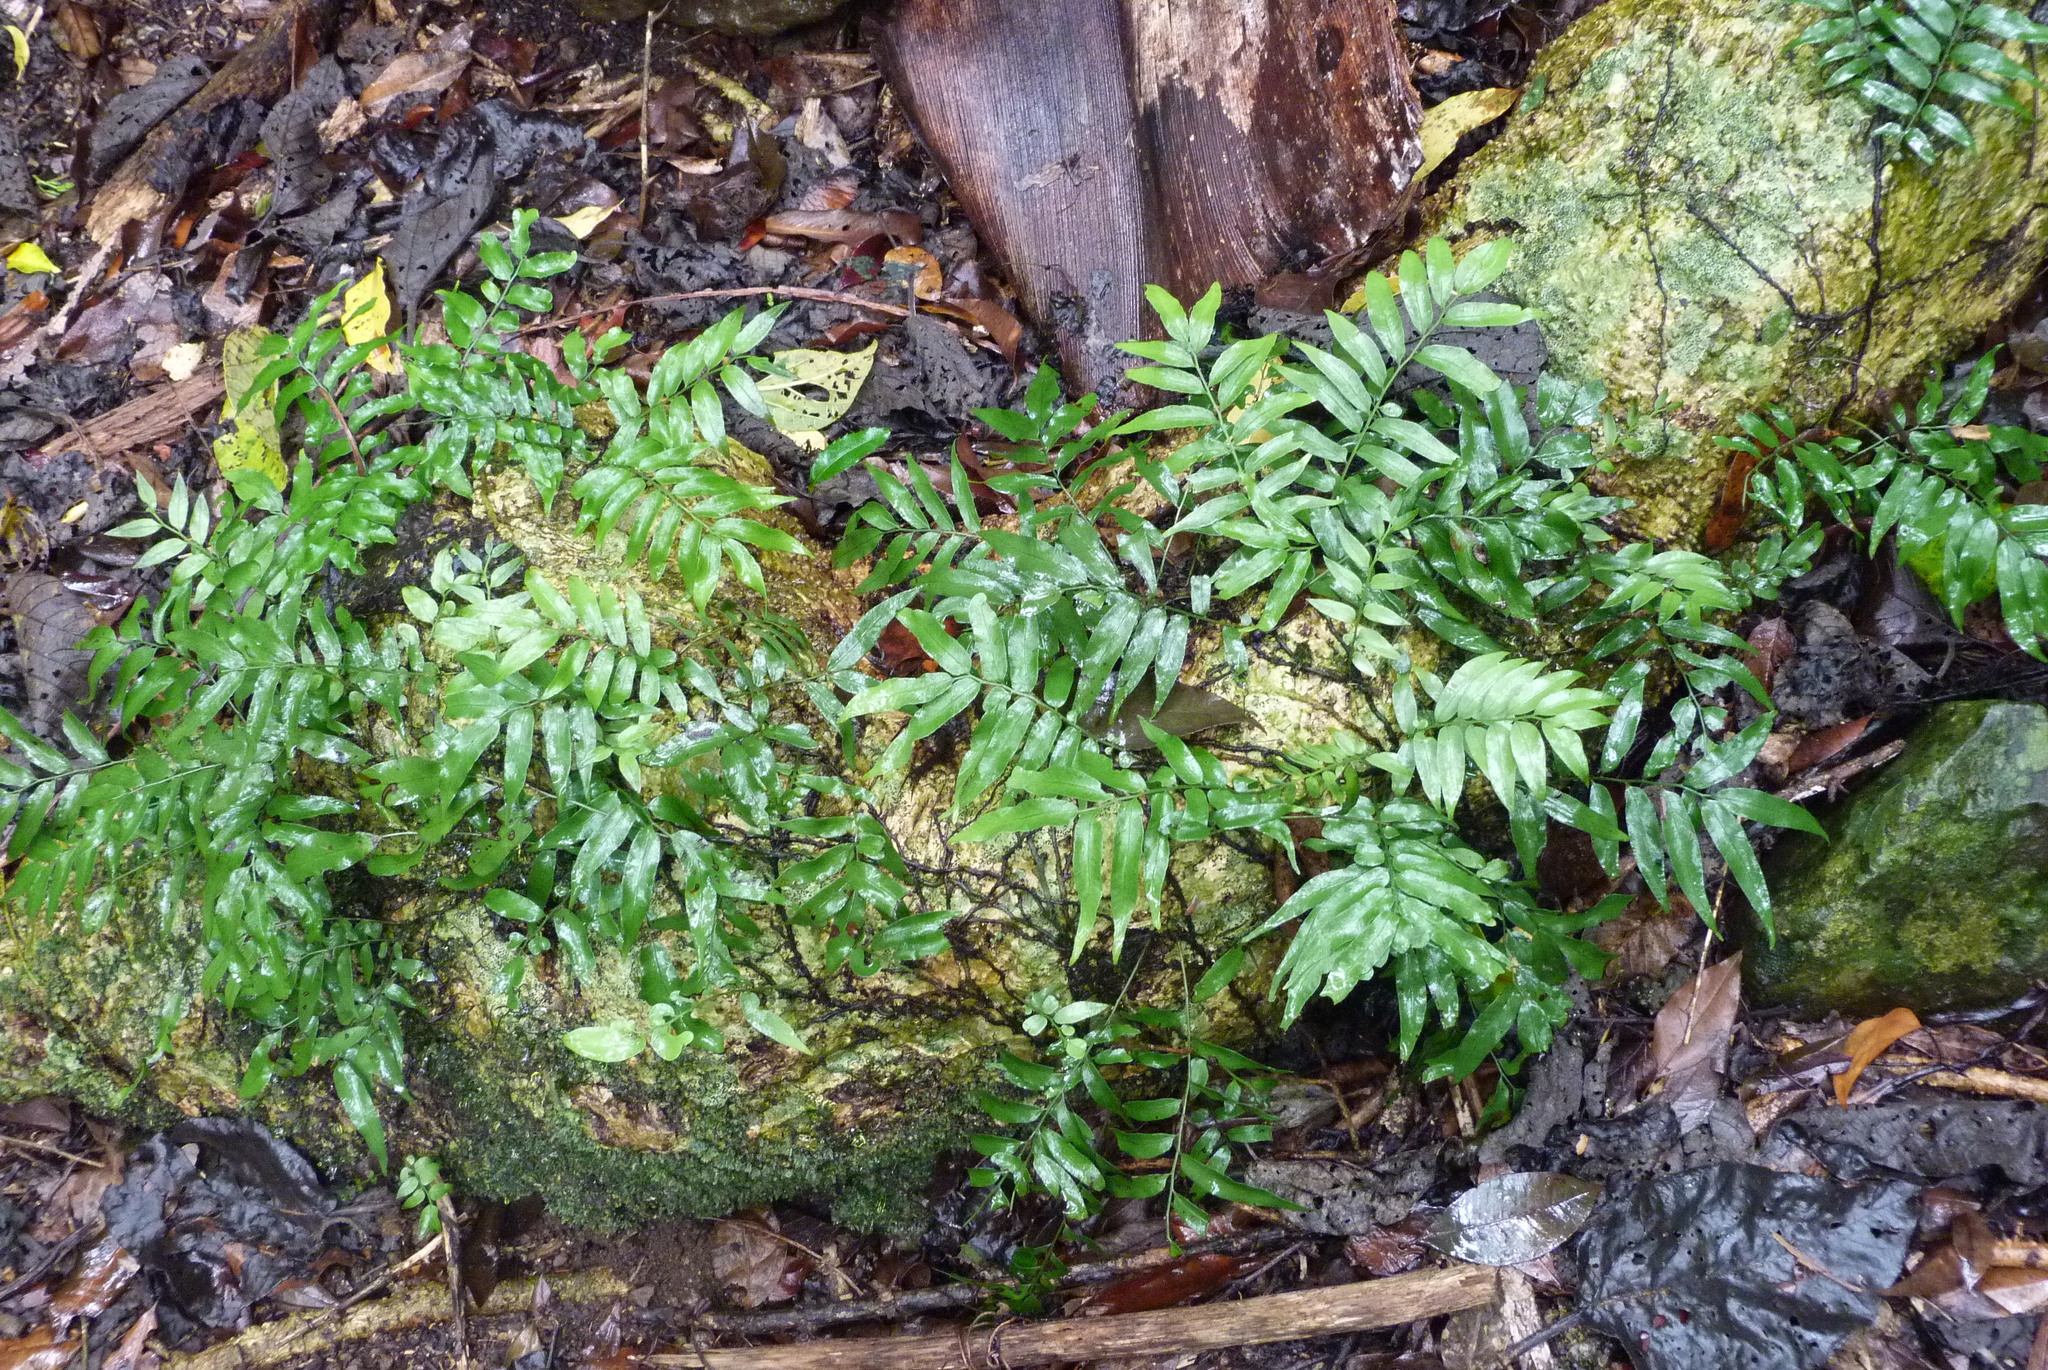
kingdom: Plantae
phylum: Tracheophyta
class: Polypodiopsida
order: Polypodiales
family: Tectariaceae
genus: Arthropteris
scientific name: Arthropteris tenella
